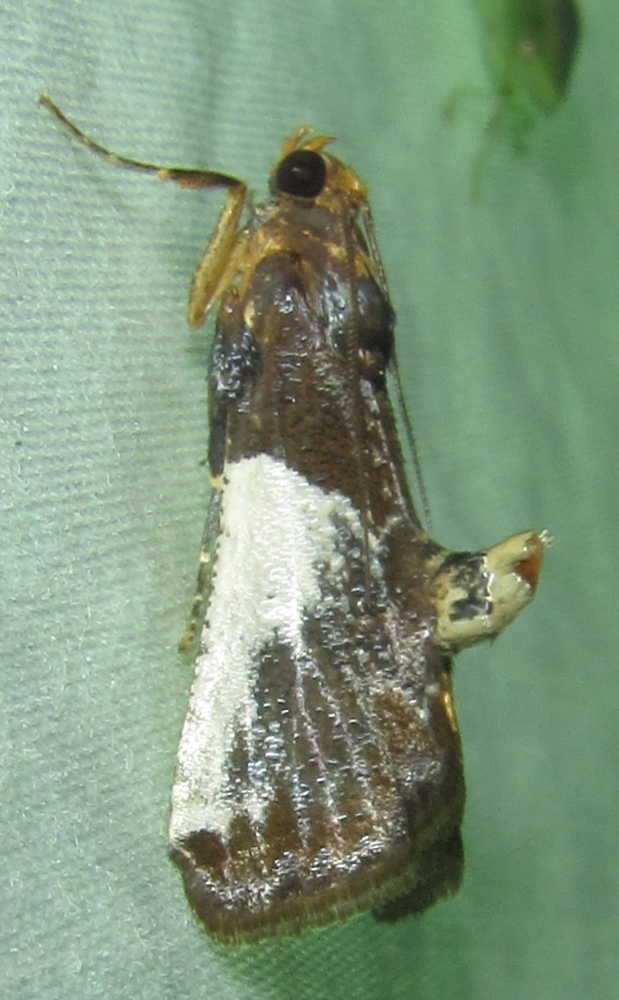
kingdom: Animalia
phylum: Arthropoda
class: Insecta
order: Lepidoptera
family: Pyralidae
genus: Pithyllis
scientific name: Pithyllis metachryseis
